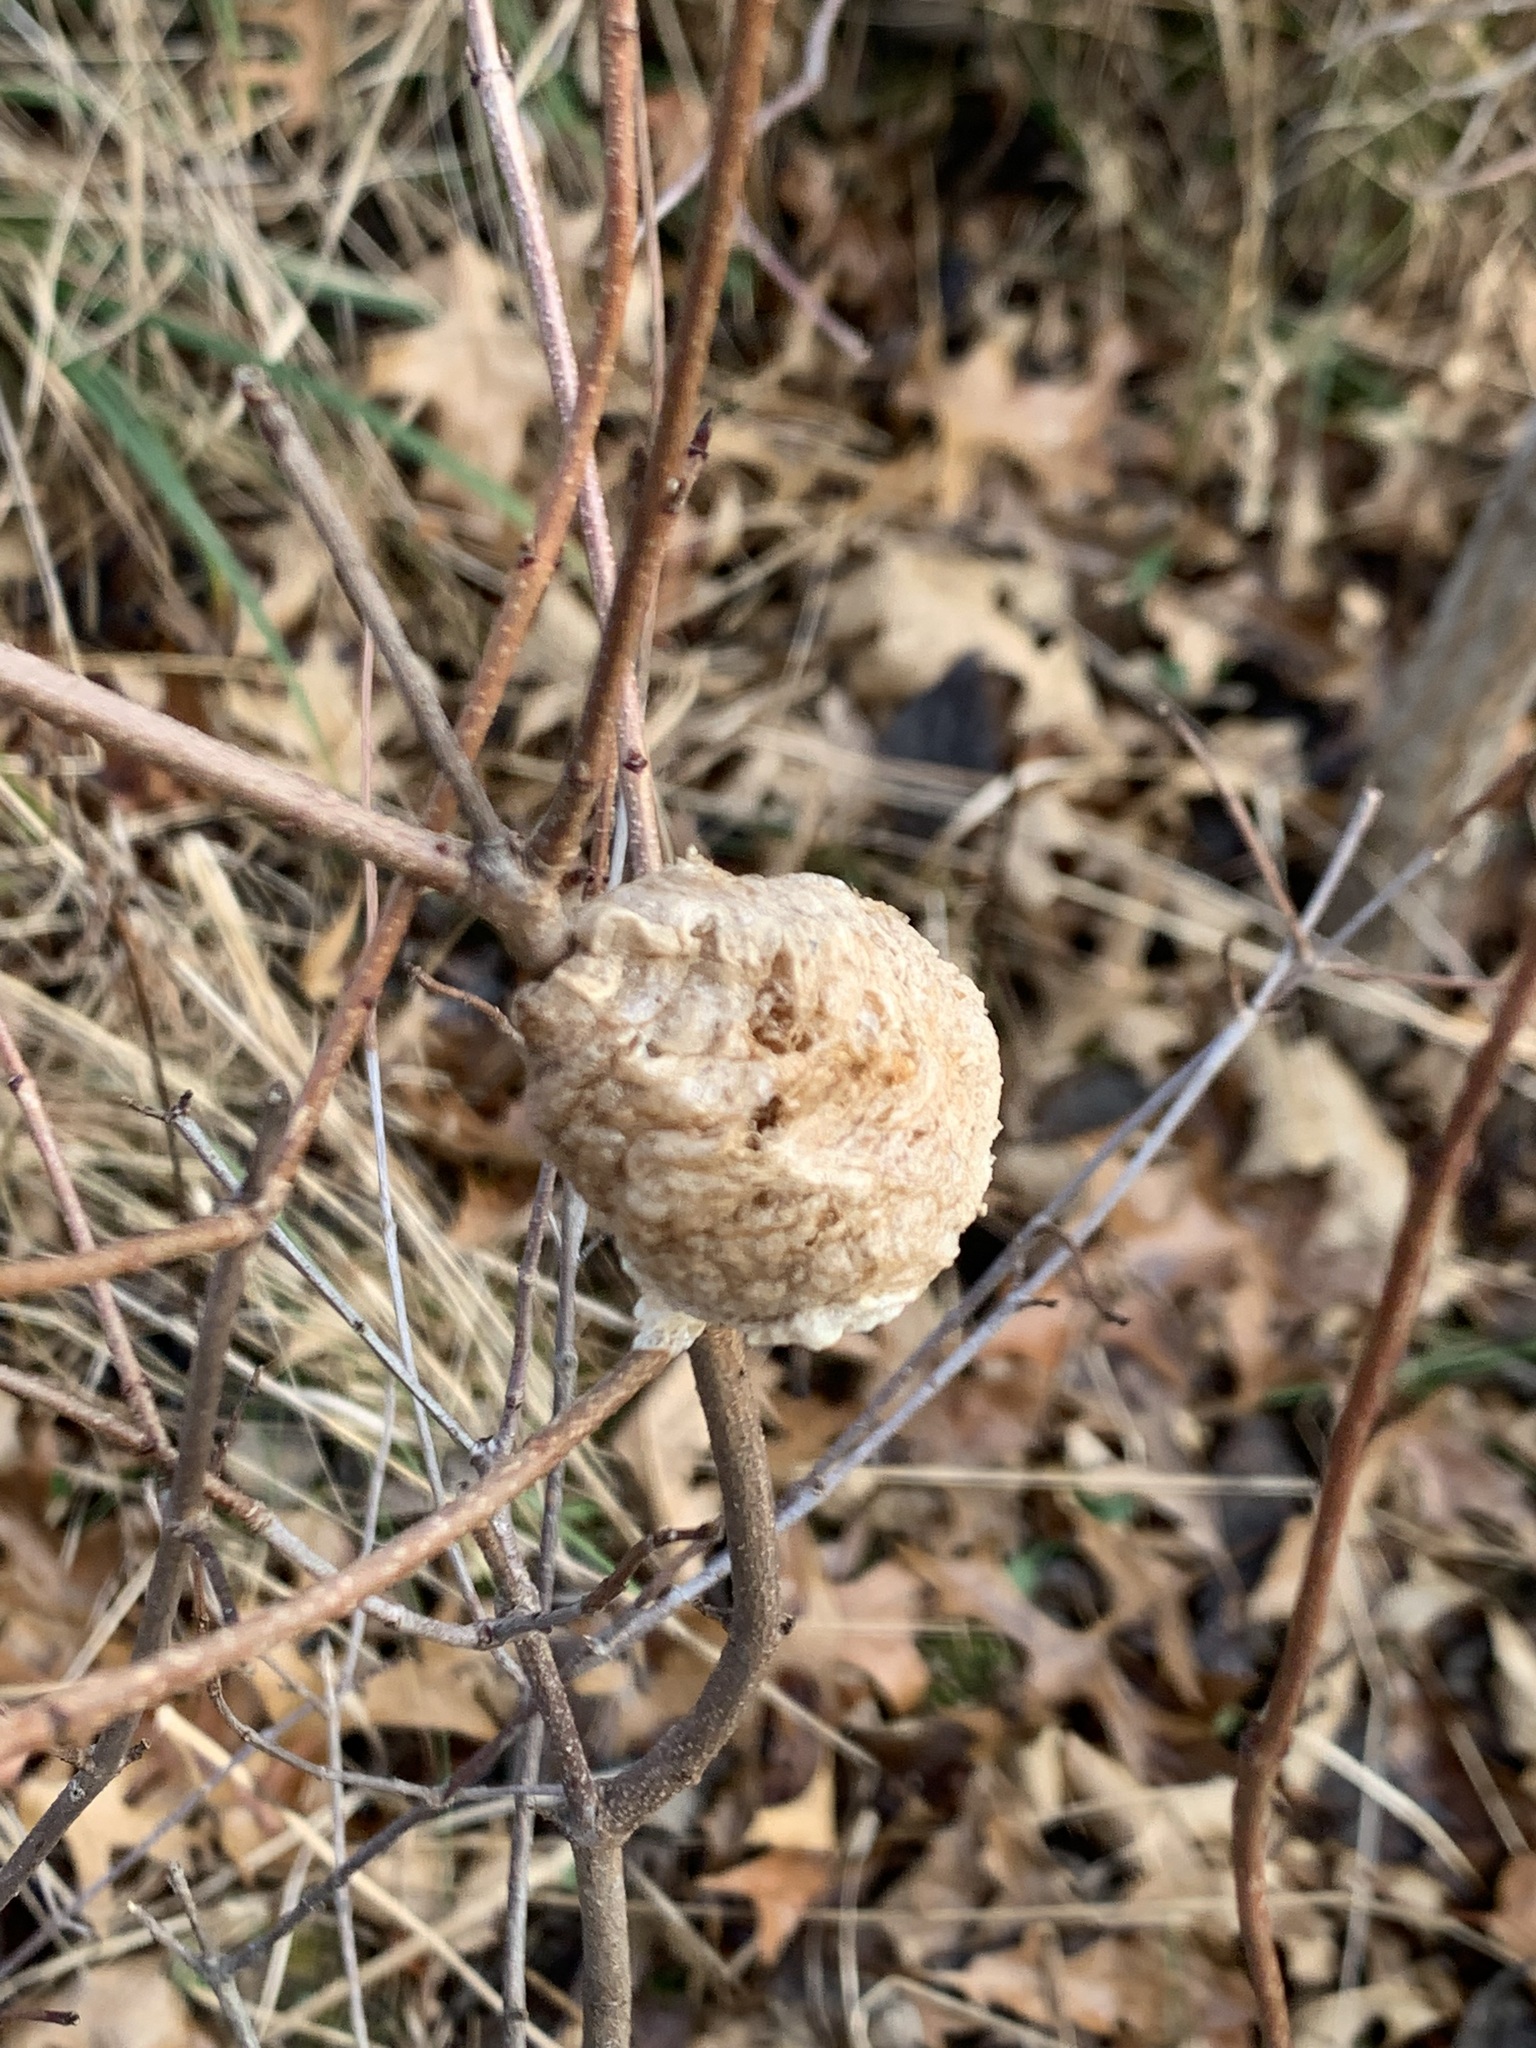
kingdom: Animalia
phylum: Arthropoda
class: Insecta
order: Mantodea
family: Mantidae
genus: Tenodera
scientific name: Tenodera sinensis
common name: Chinese mantis
